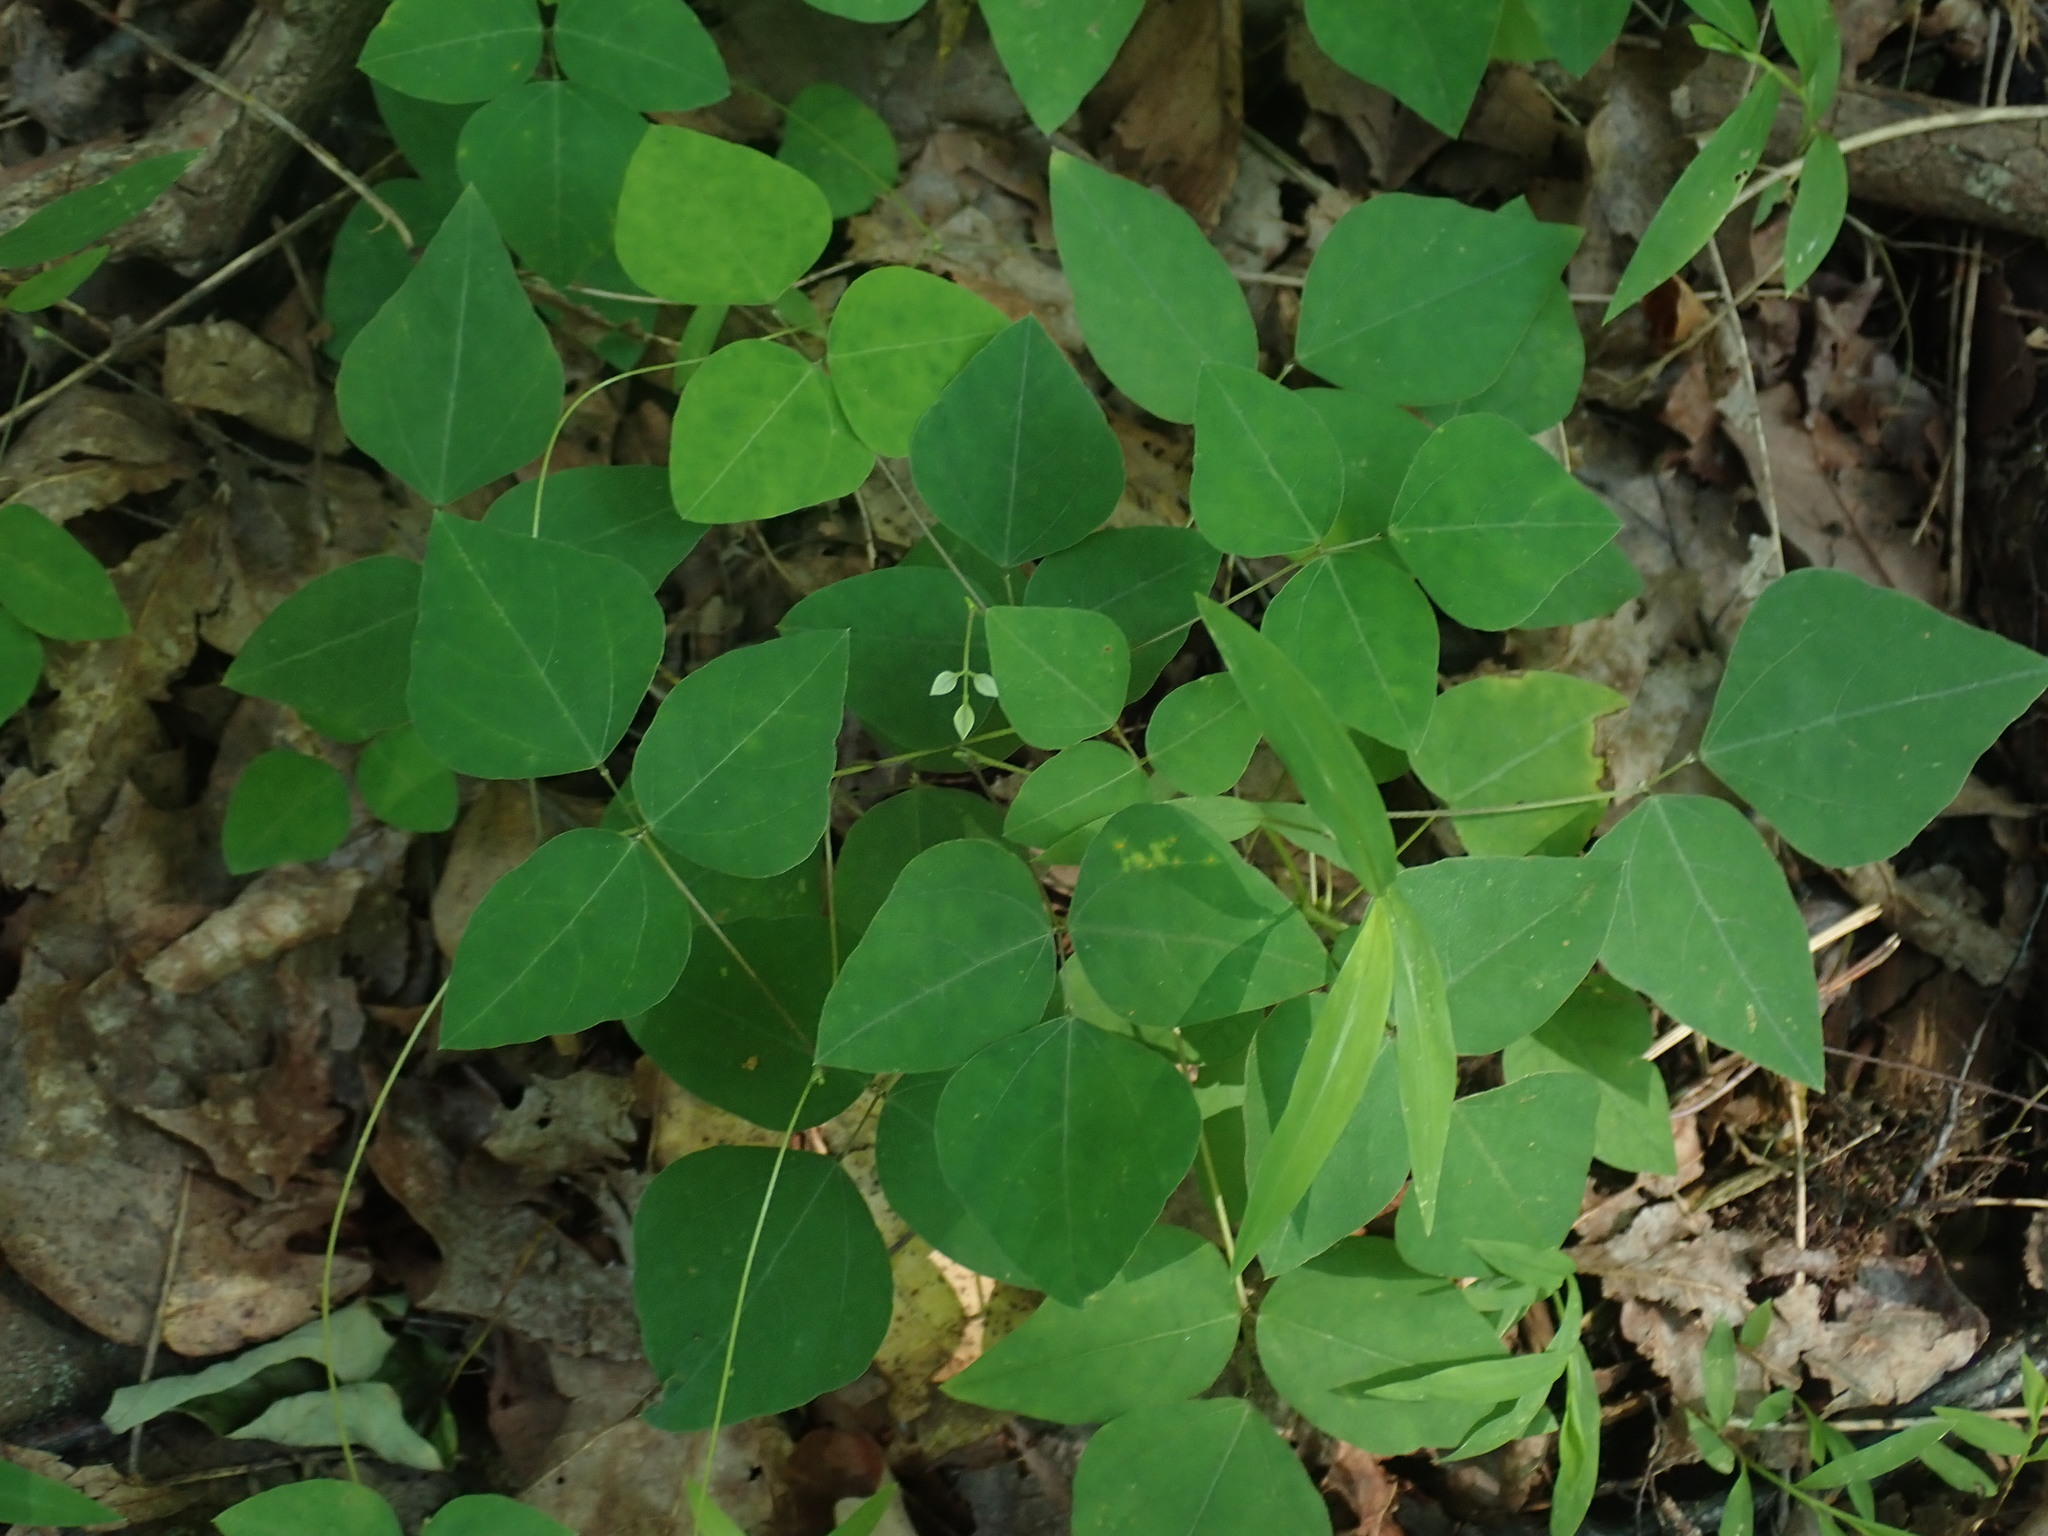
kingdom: Plantae
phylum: Tracheophyta
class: Magnoliopsida
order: Fabales
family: Fabaceae
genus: Amphicarpaea
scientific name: Amphicarpaea bracteata
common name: American hog peanut
